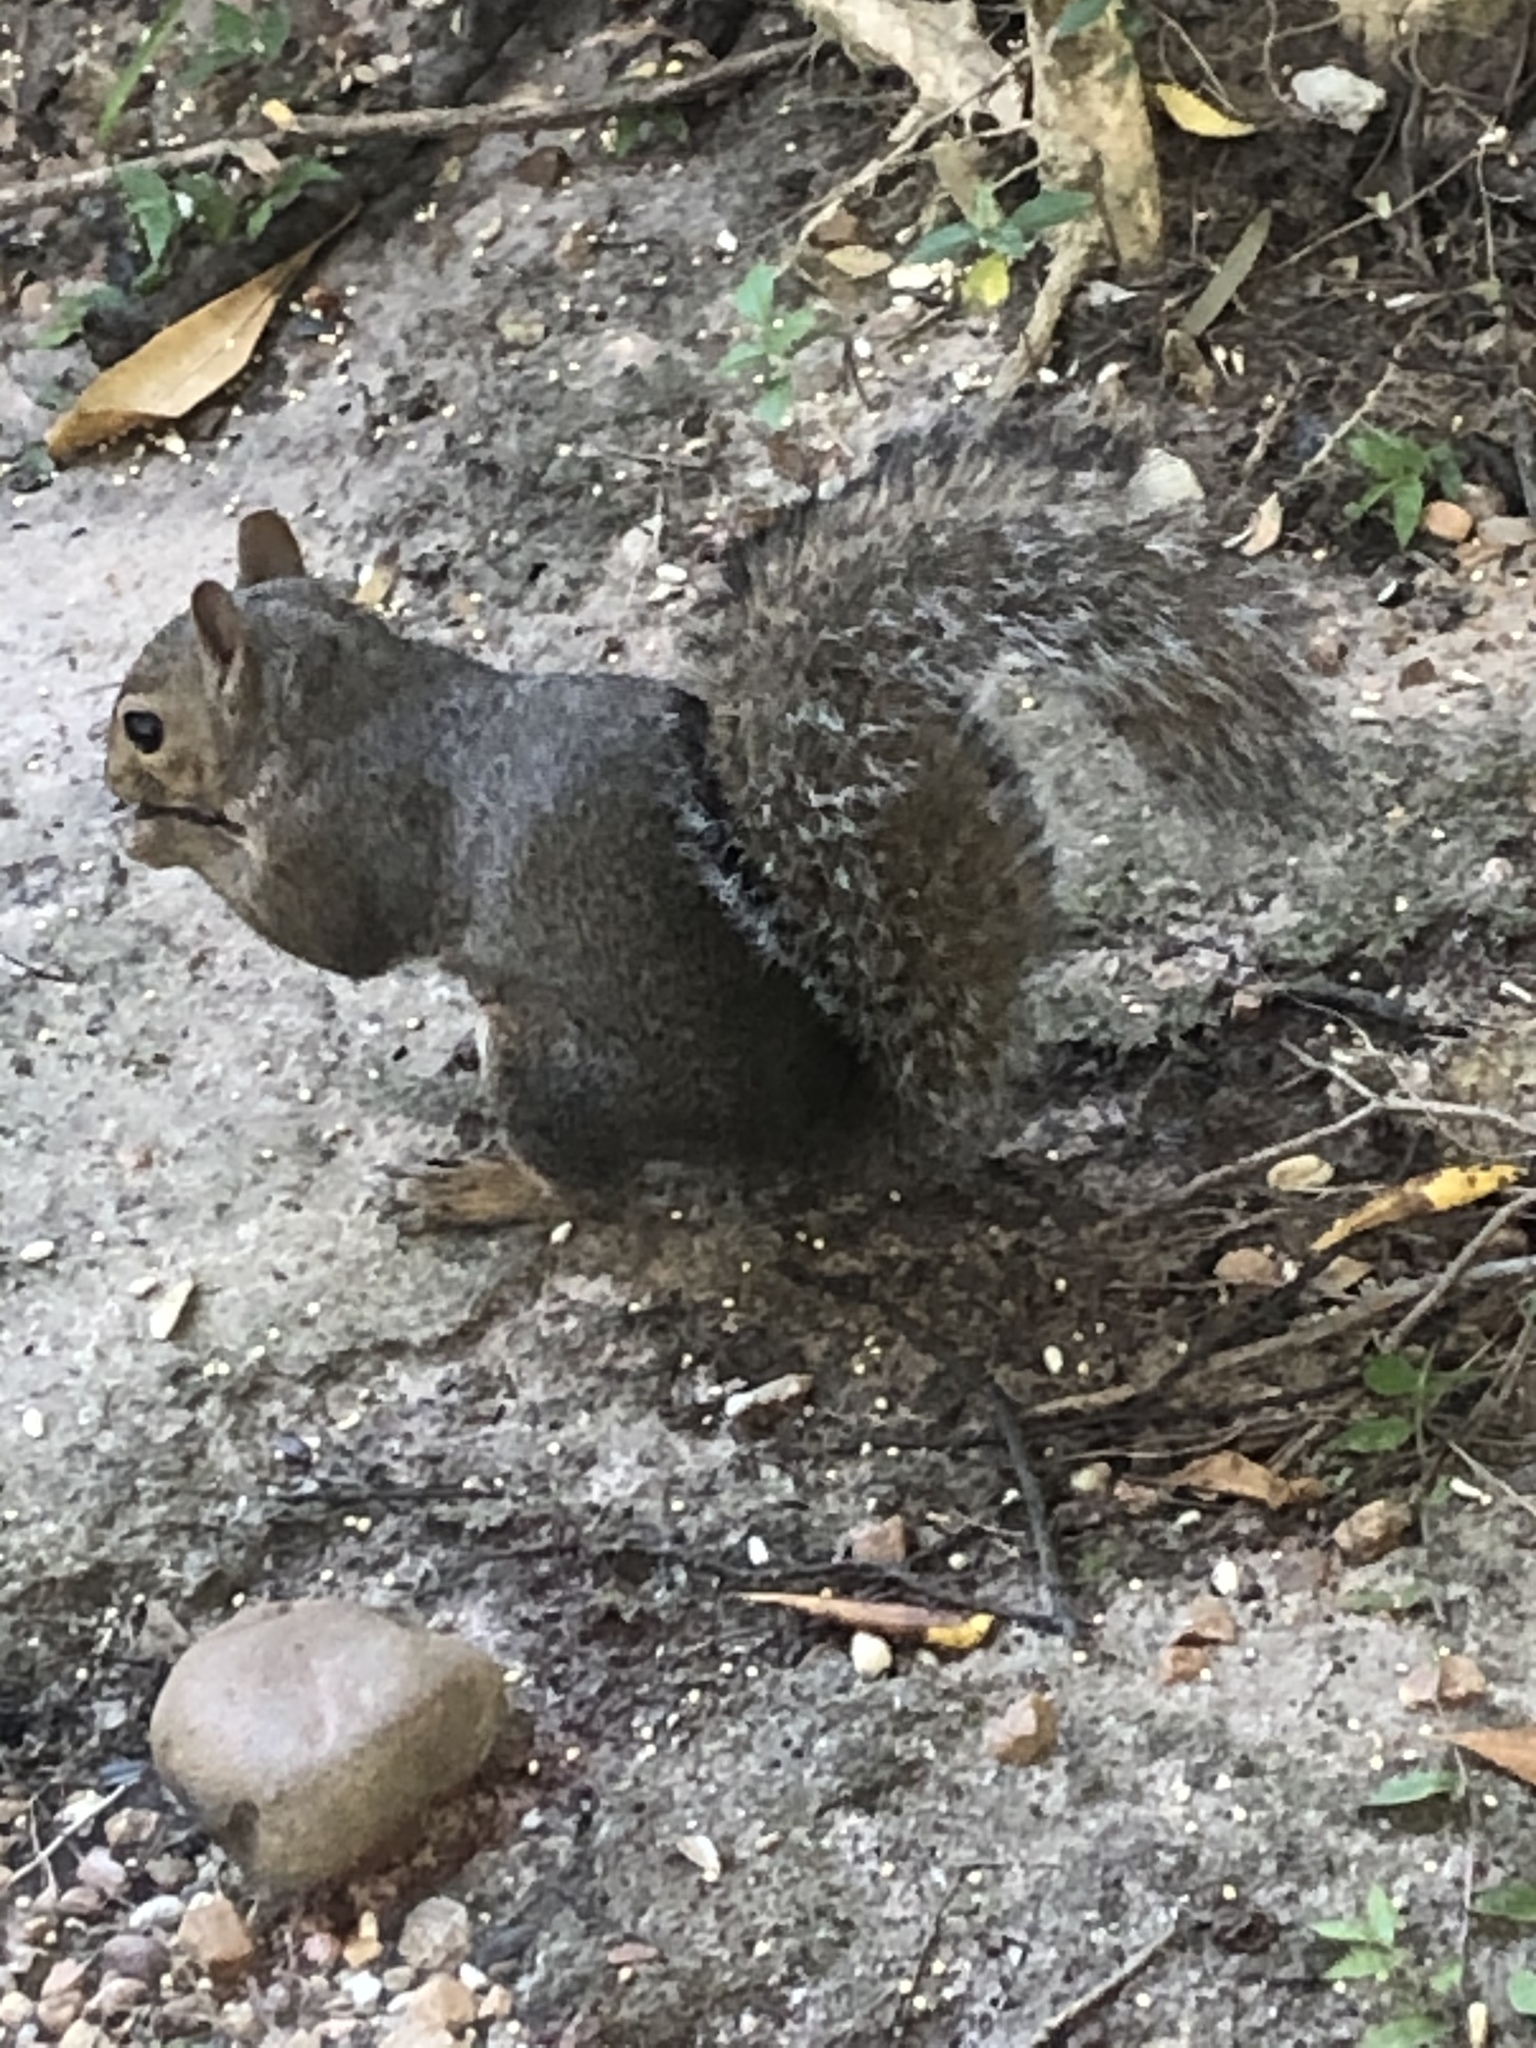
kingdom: Animalia
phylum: Chordata
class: Mammalia
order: Rodentia
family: Sciuridae
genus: Sciurus
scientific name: Sciurus carolinensis
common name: Eastern gray squirrel
